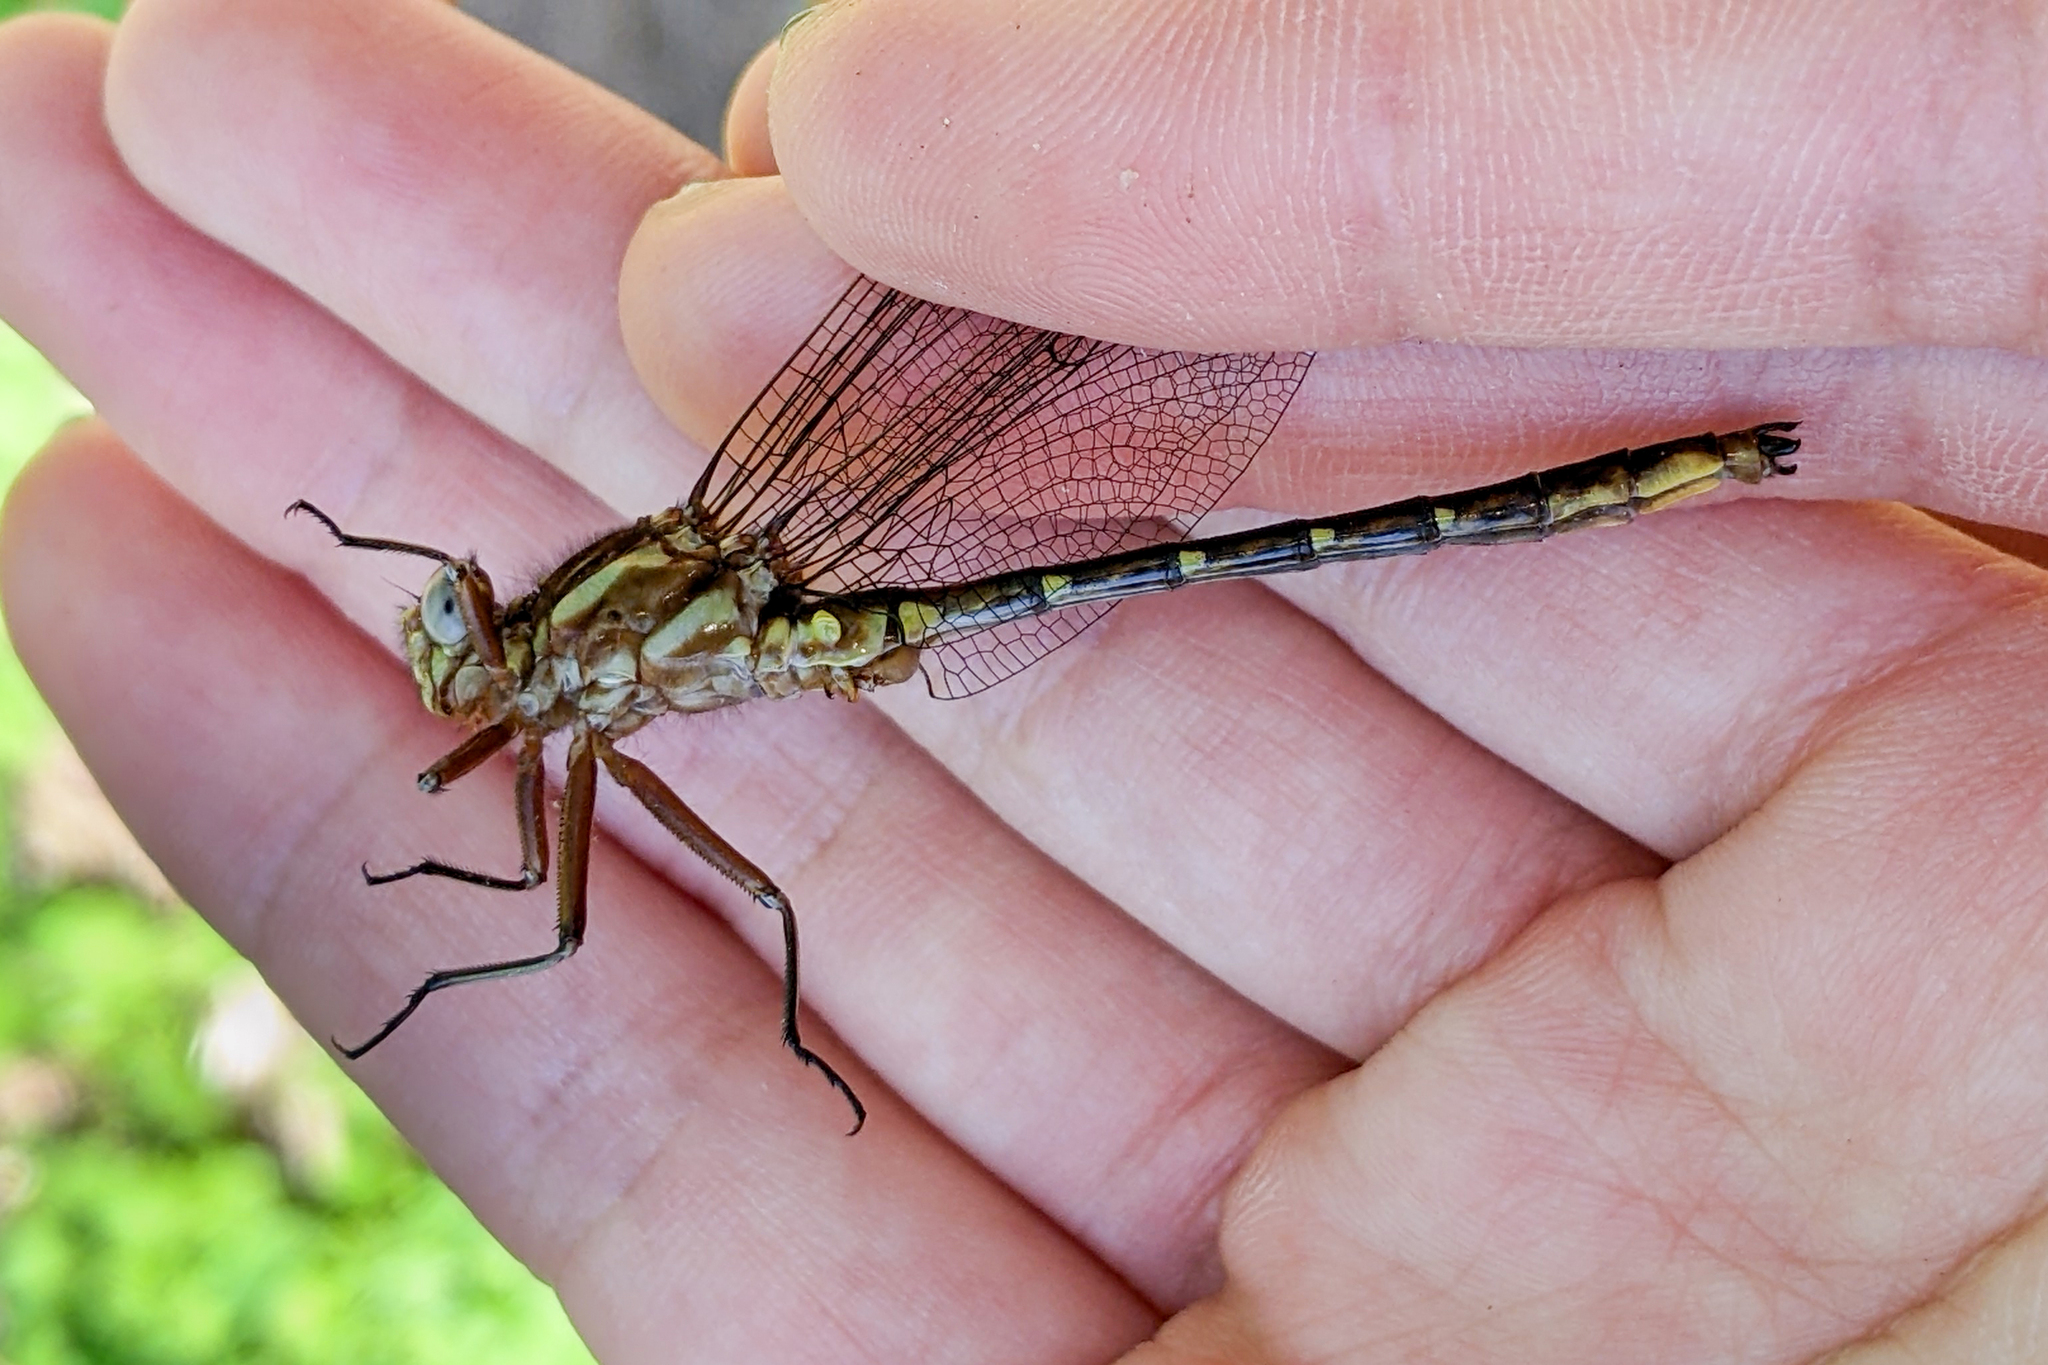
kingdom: Animalia
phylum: Arthropoda
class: Insecta
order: Odonata
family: Gomphidae
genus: Phanogomphus
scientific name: Phanogomphus lividus
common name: Ashy clubtail
